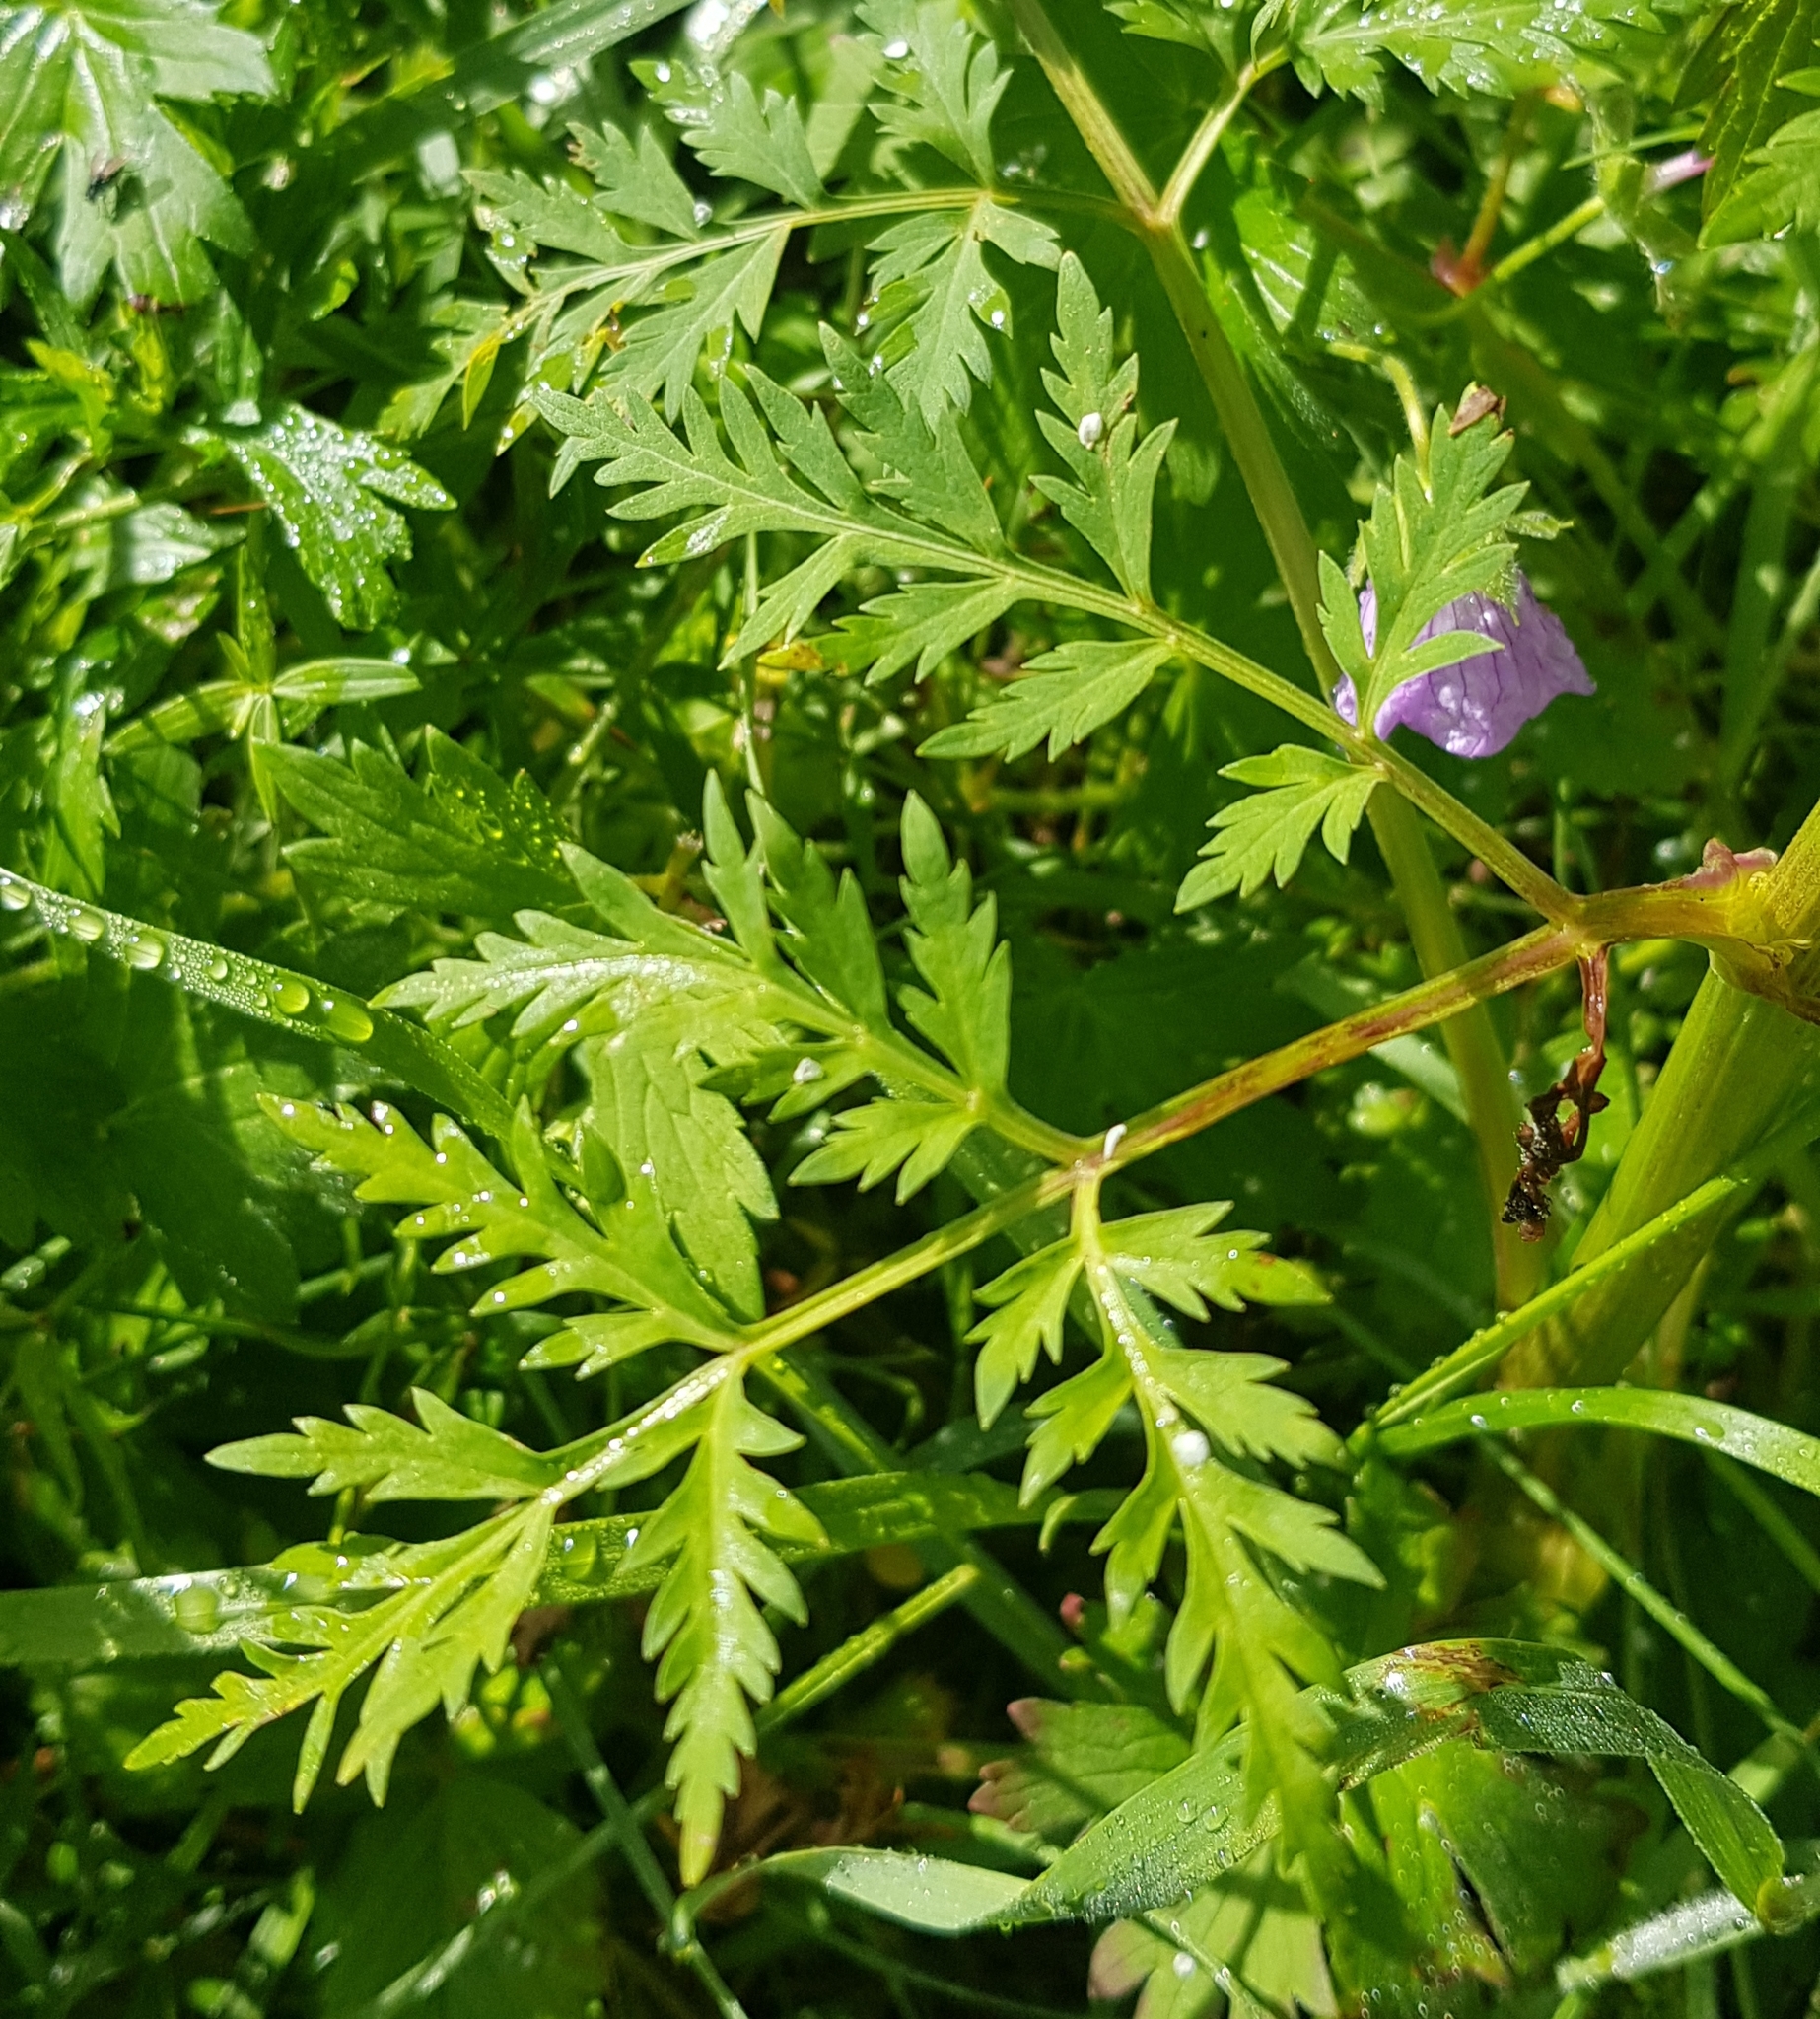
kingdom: Plantae
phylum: Tracheophyta
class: Magnoliopsida
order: Apiales
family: Apiaceae
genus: Pleurospermum
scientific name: Pleurospermum uralense
